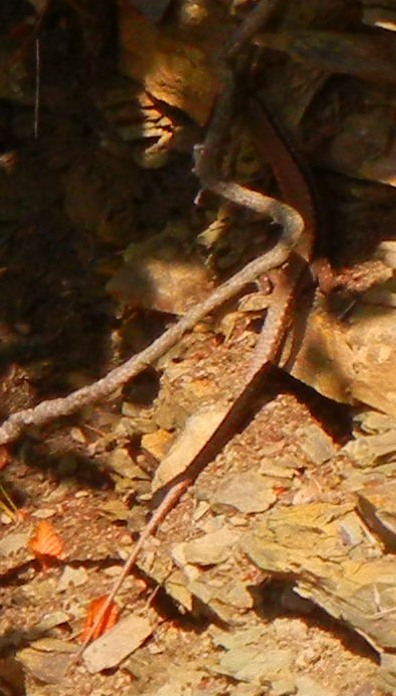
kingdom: Animalia
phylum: Chordata
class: Squamata
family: Lacertidae
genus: Podarcis
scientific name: Podarcis muralis
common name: Common wall lizard
